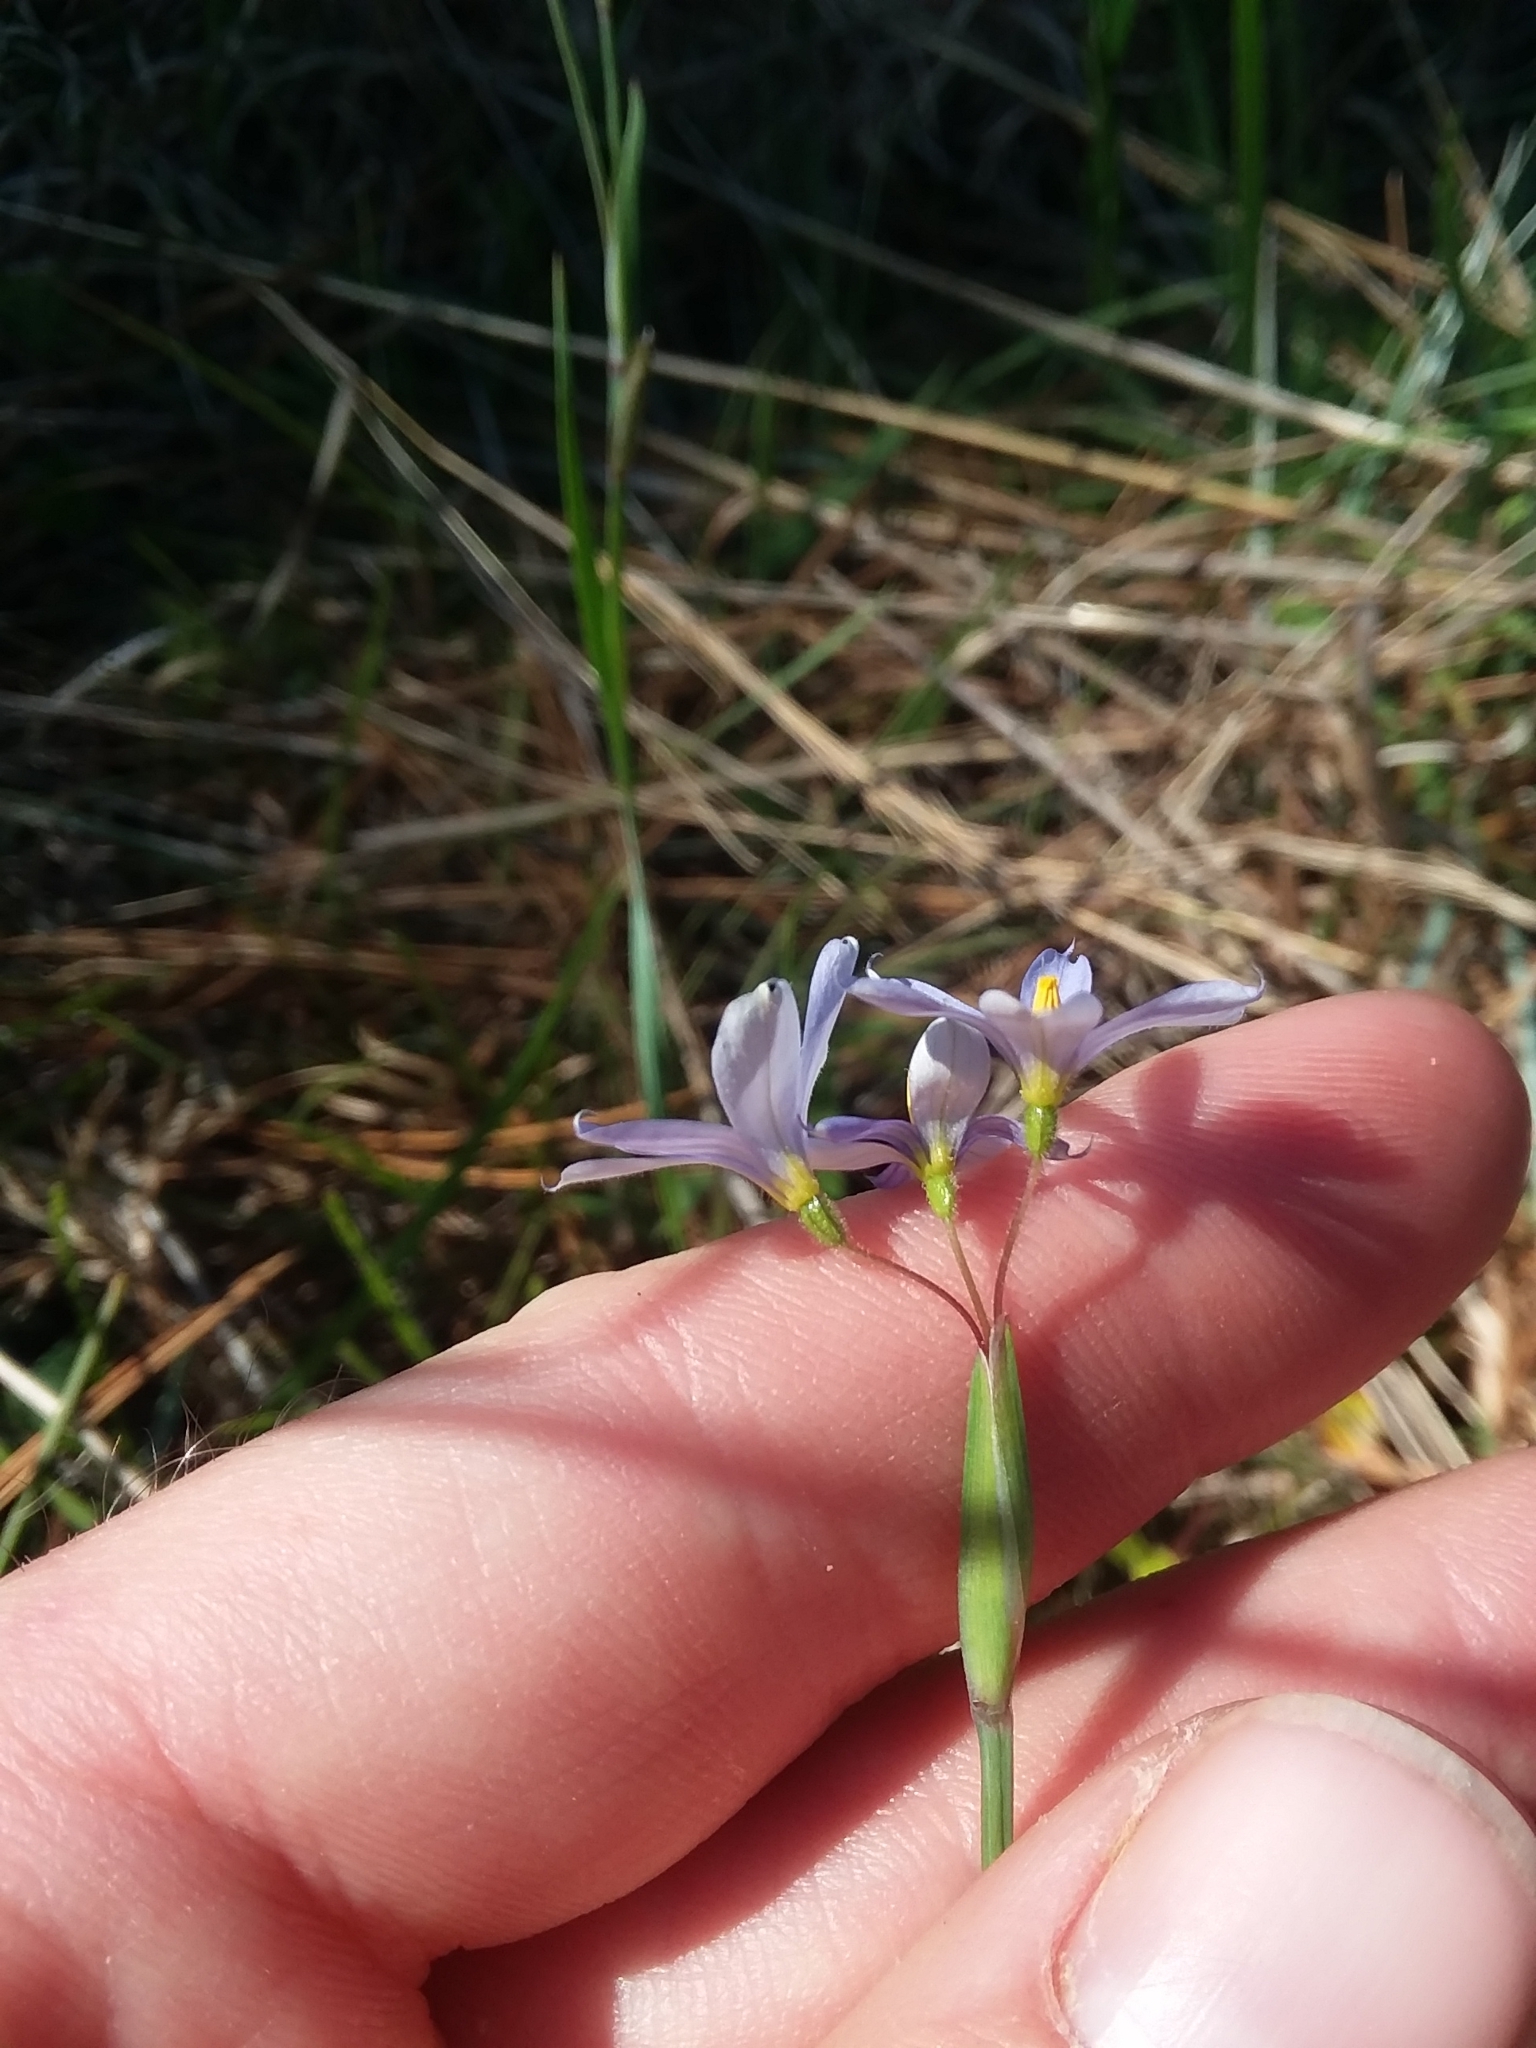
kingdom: Plantae
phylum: Tracheophyta
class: Liliopsida
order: Asparagales
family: Iridaceae
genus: Sisyrinchium
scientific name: Sisyrinchium nashii
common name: Nash's blue-eyed-grass
